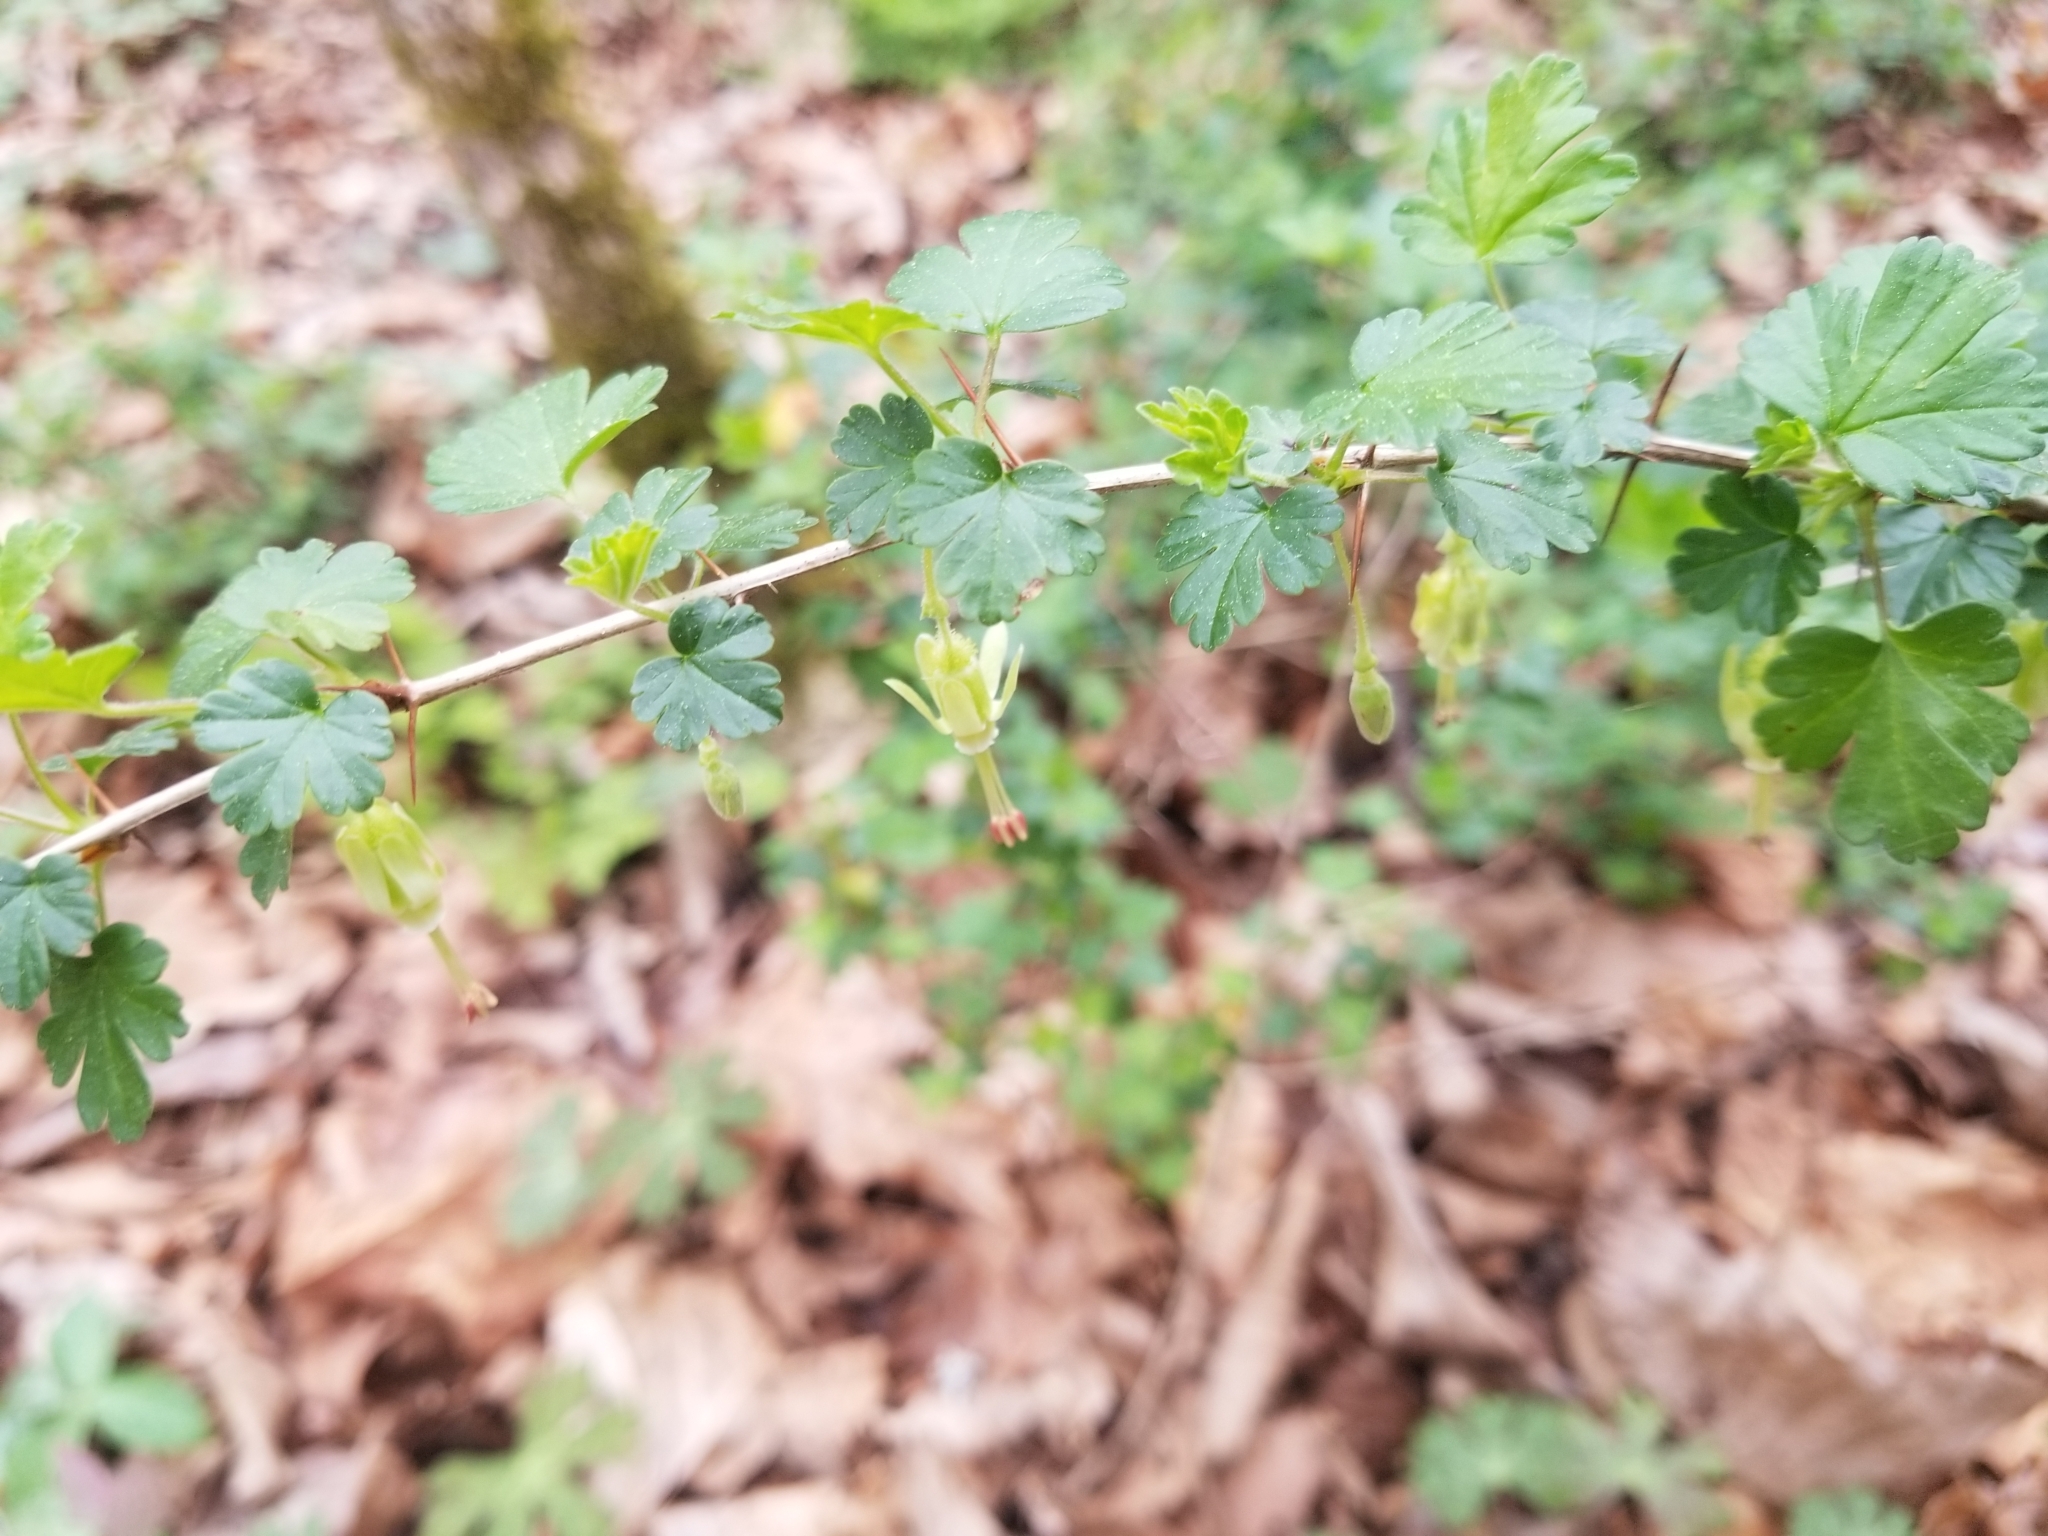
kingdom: Plantae
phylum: Tracheophyta
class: Magnoliopsida
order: Saxifragales
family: Grossulariaceae
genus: Ribes
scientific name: Ribes echinellum
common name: Miccosukee gooseberry
